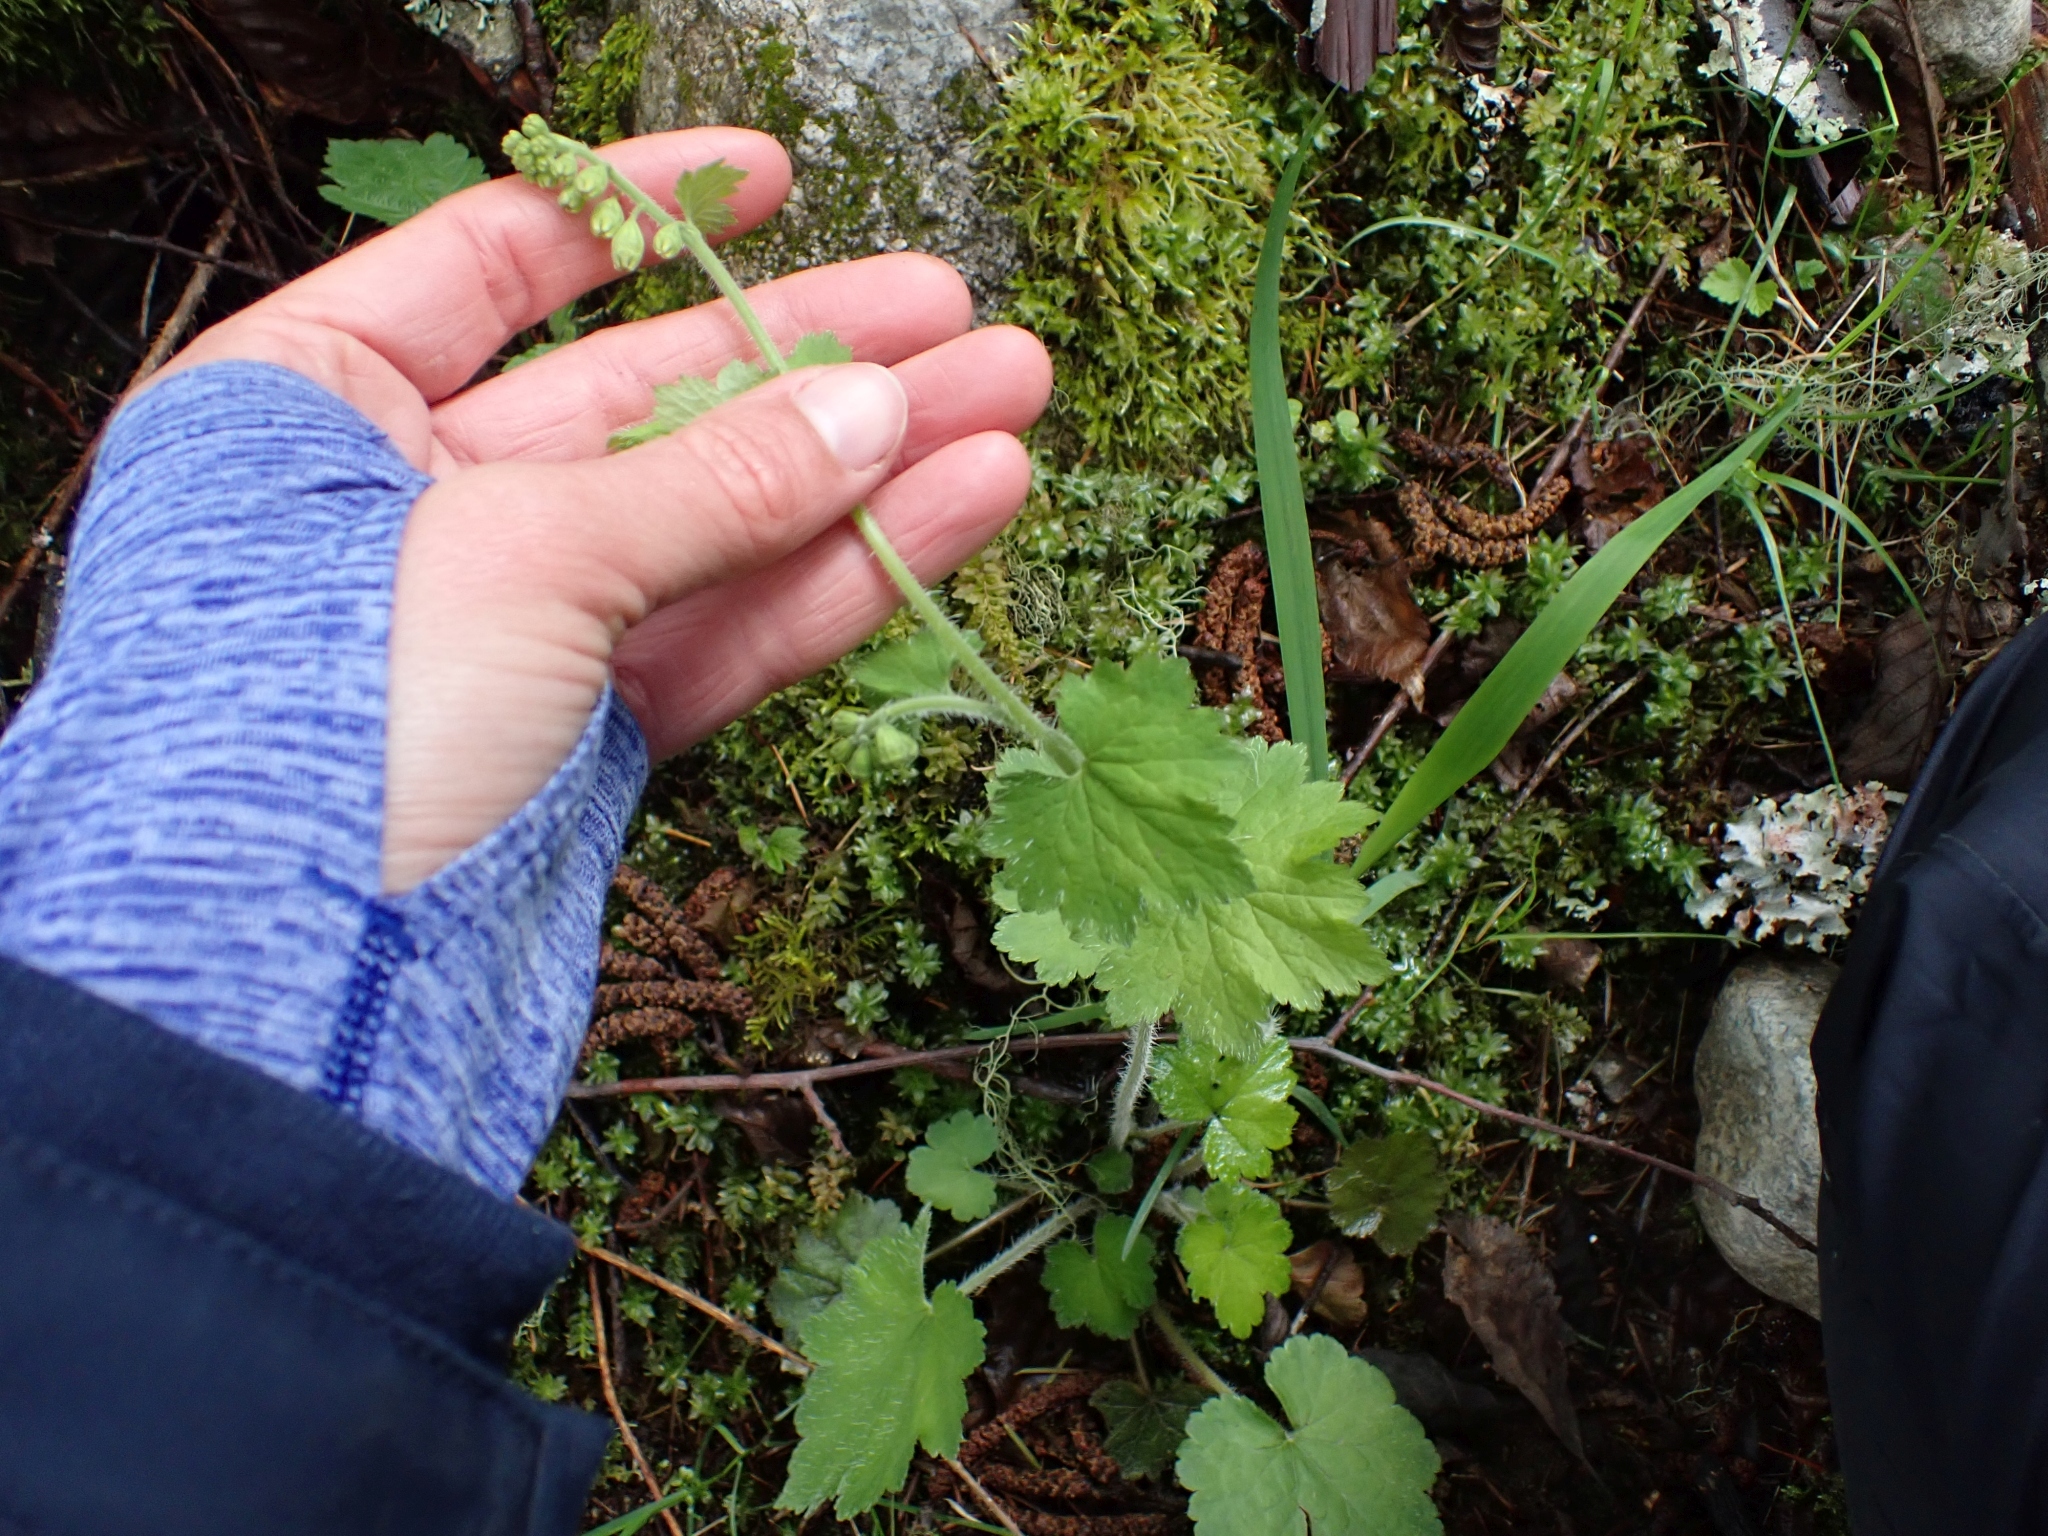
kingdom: Plantae
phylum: Tracheophyta
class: Magnoliopsida
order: Saxifragales
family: Saxifragaceae
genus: Tellima
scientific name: Tellima grandiflora
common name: Fringecups
